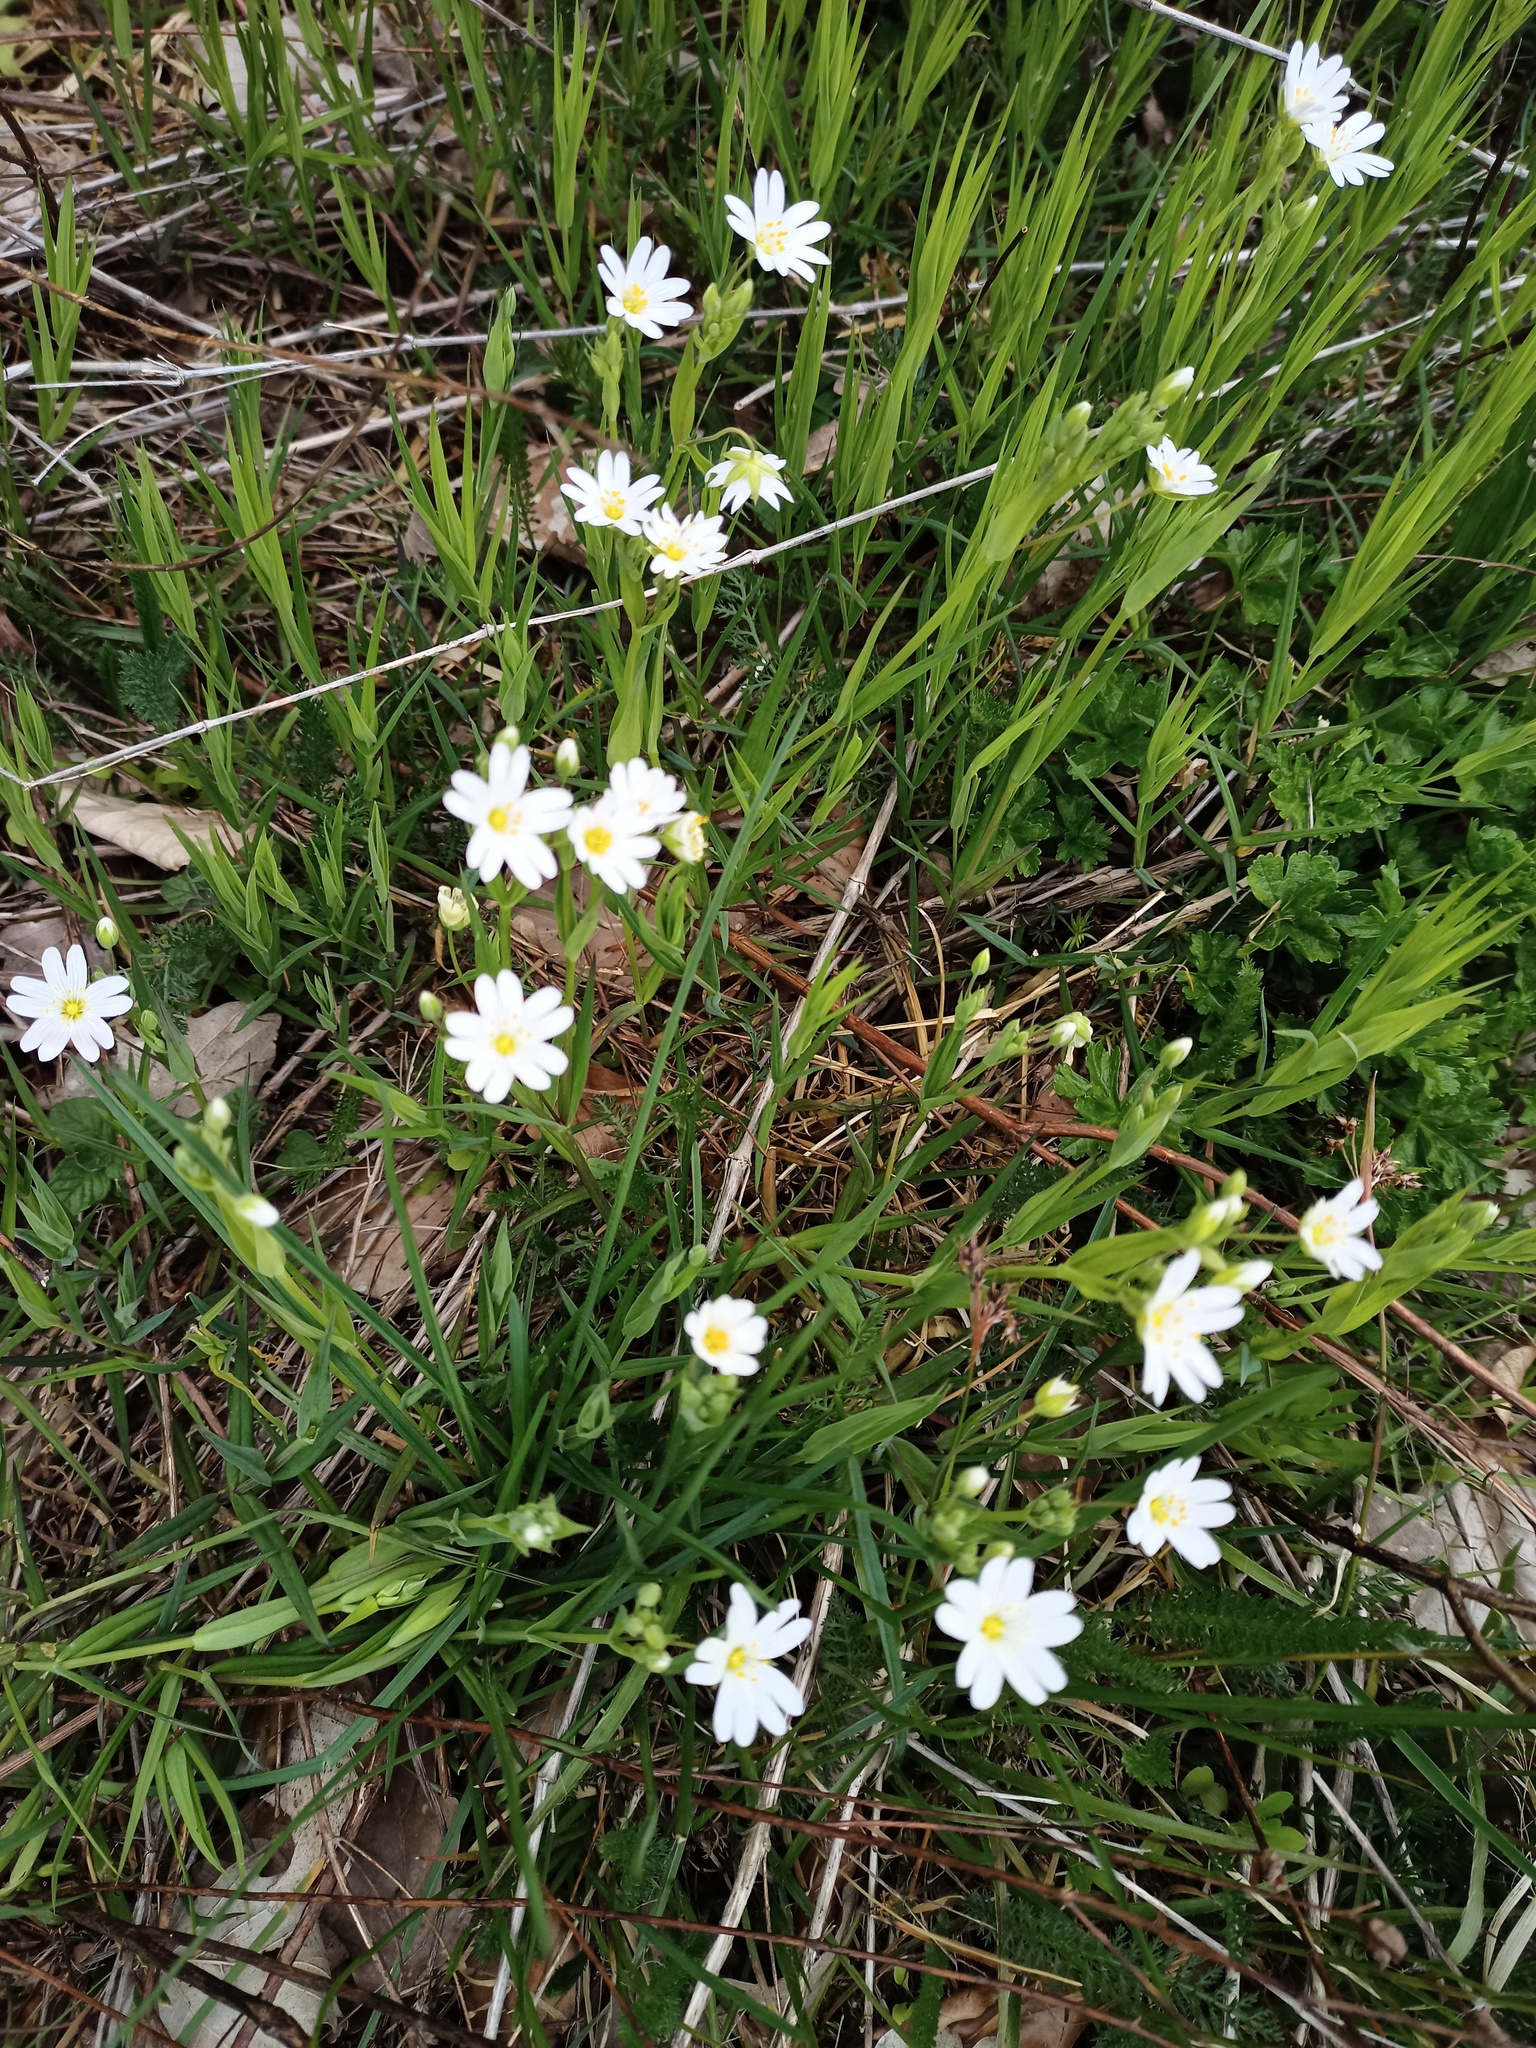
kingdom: Plantae
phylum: Tracheophyta
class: Magnoliopsida
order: Caryophyllales
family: Caryophyllaceae
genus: Rabelera
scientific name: Rabelera holostea
